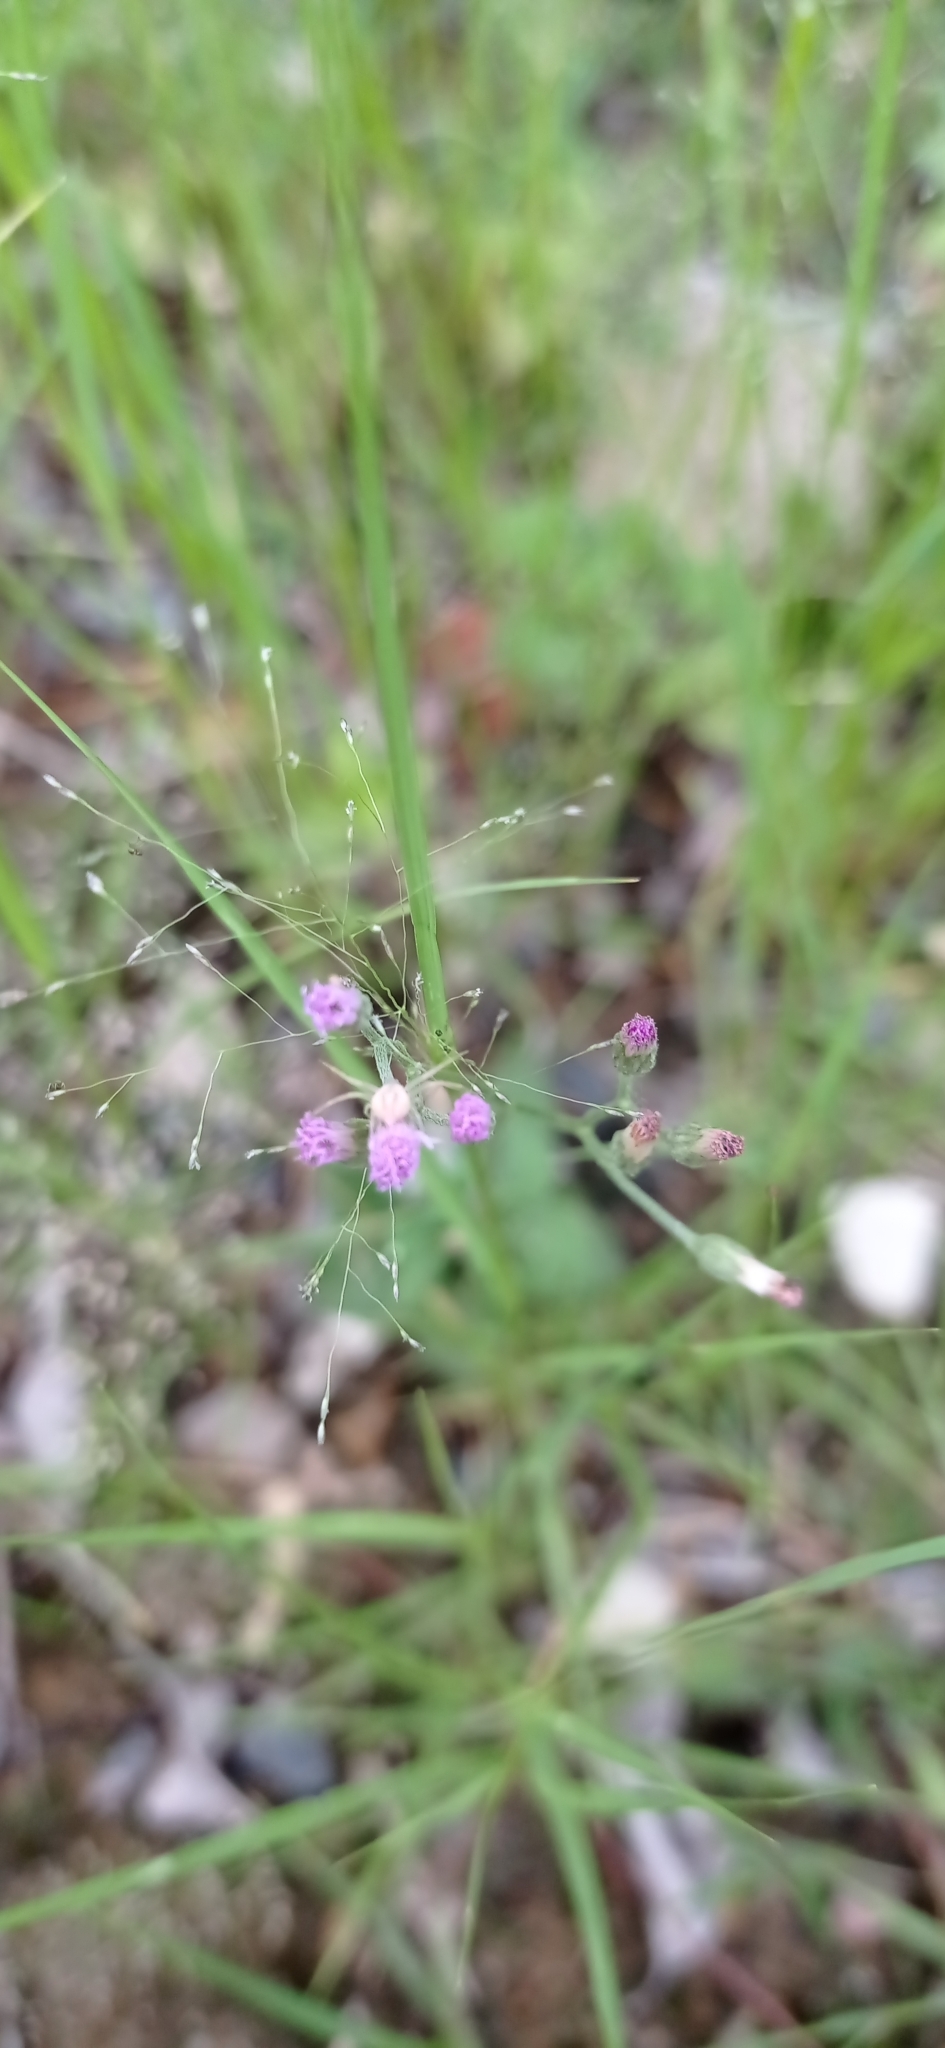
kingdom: Plantae
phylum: Tracheophyta
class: Magnoliopsida
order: Asterales
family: Asteraceae
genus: Cyanthillium
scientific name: Cyanthillium cinereum
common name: Little ironweed
